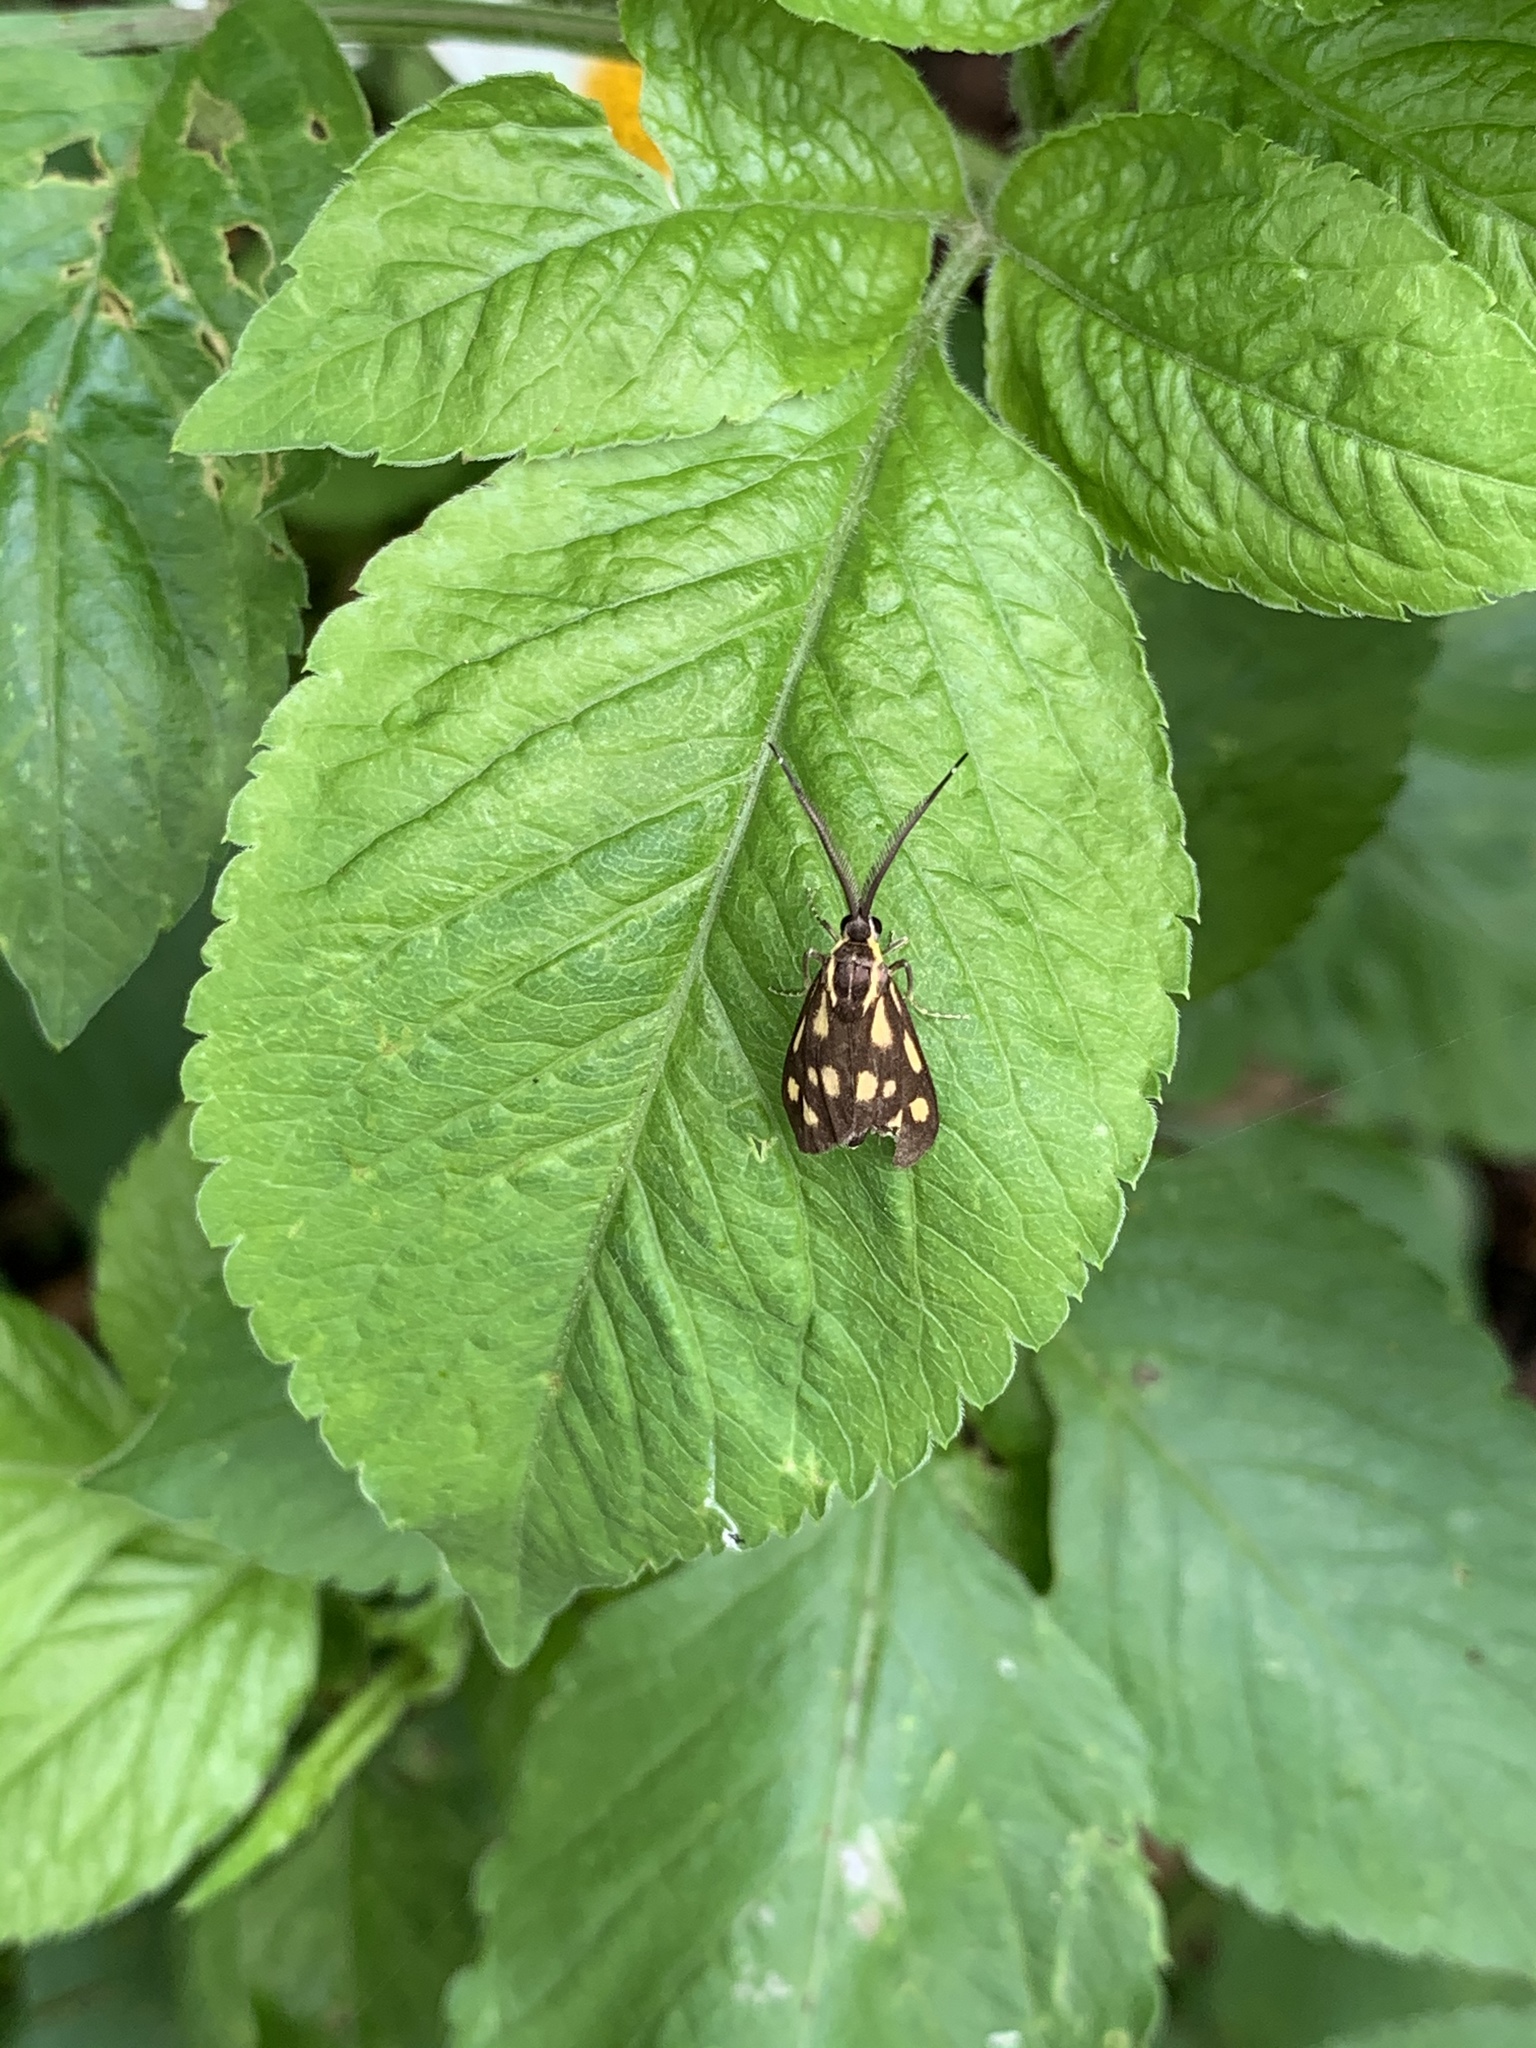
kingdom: Animalia
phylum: Arthropoda
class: Insecta
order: Lepidoptera
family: Zygaenidae
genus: Artona
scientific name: Artona walkeri
